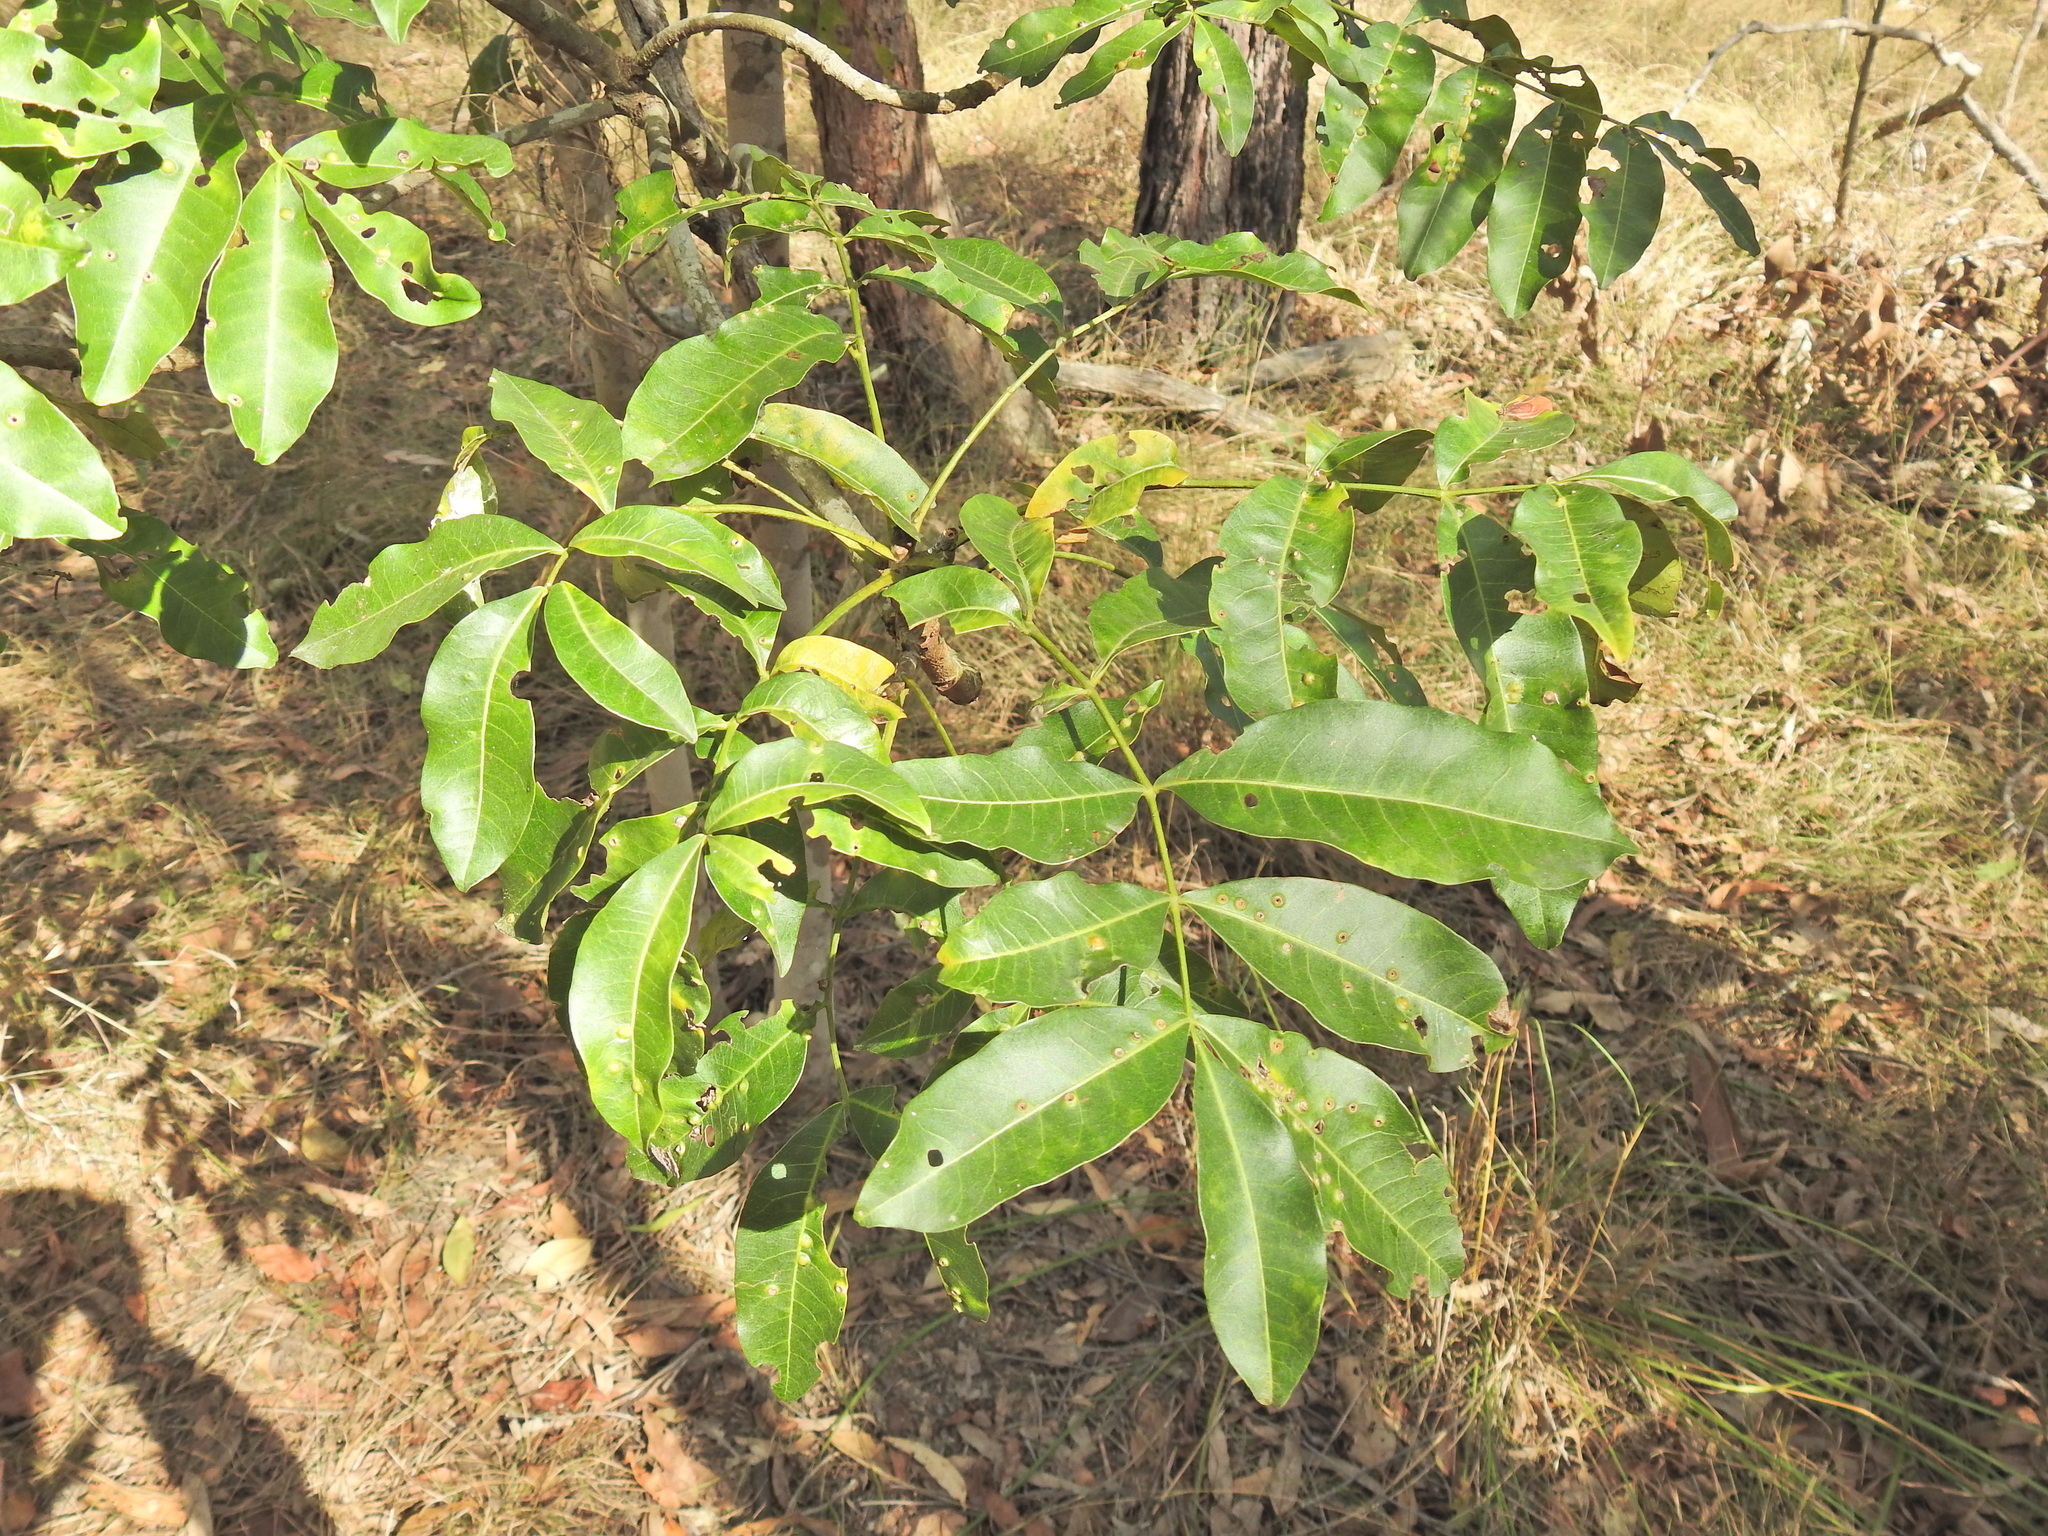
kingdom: Plantae
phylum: Tracheophyta
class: Magnoliopsida
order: Sapindales
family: Rutaceae
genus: Flindersia
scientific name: Flindersia australis
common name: Australian-teak
